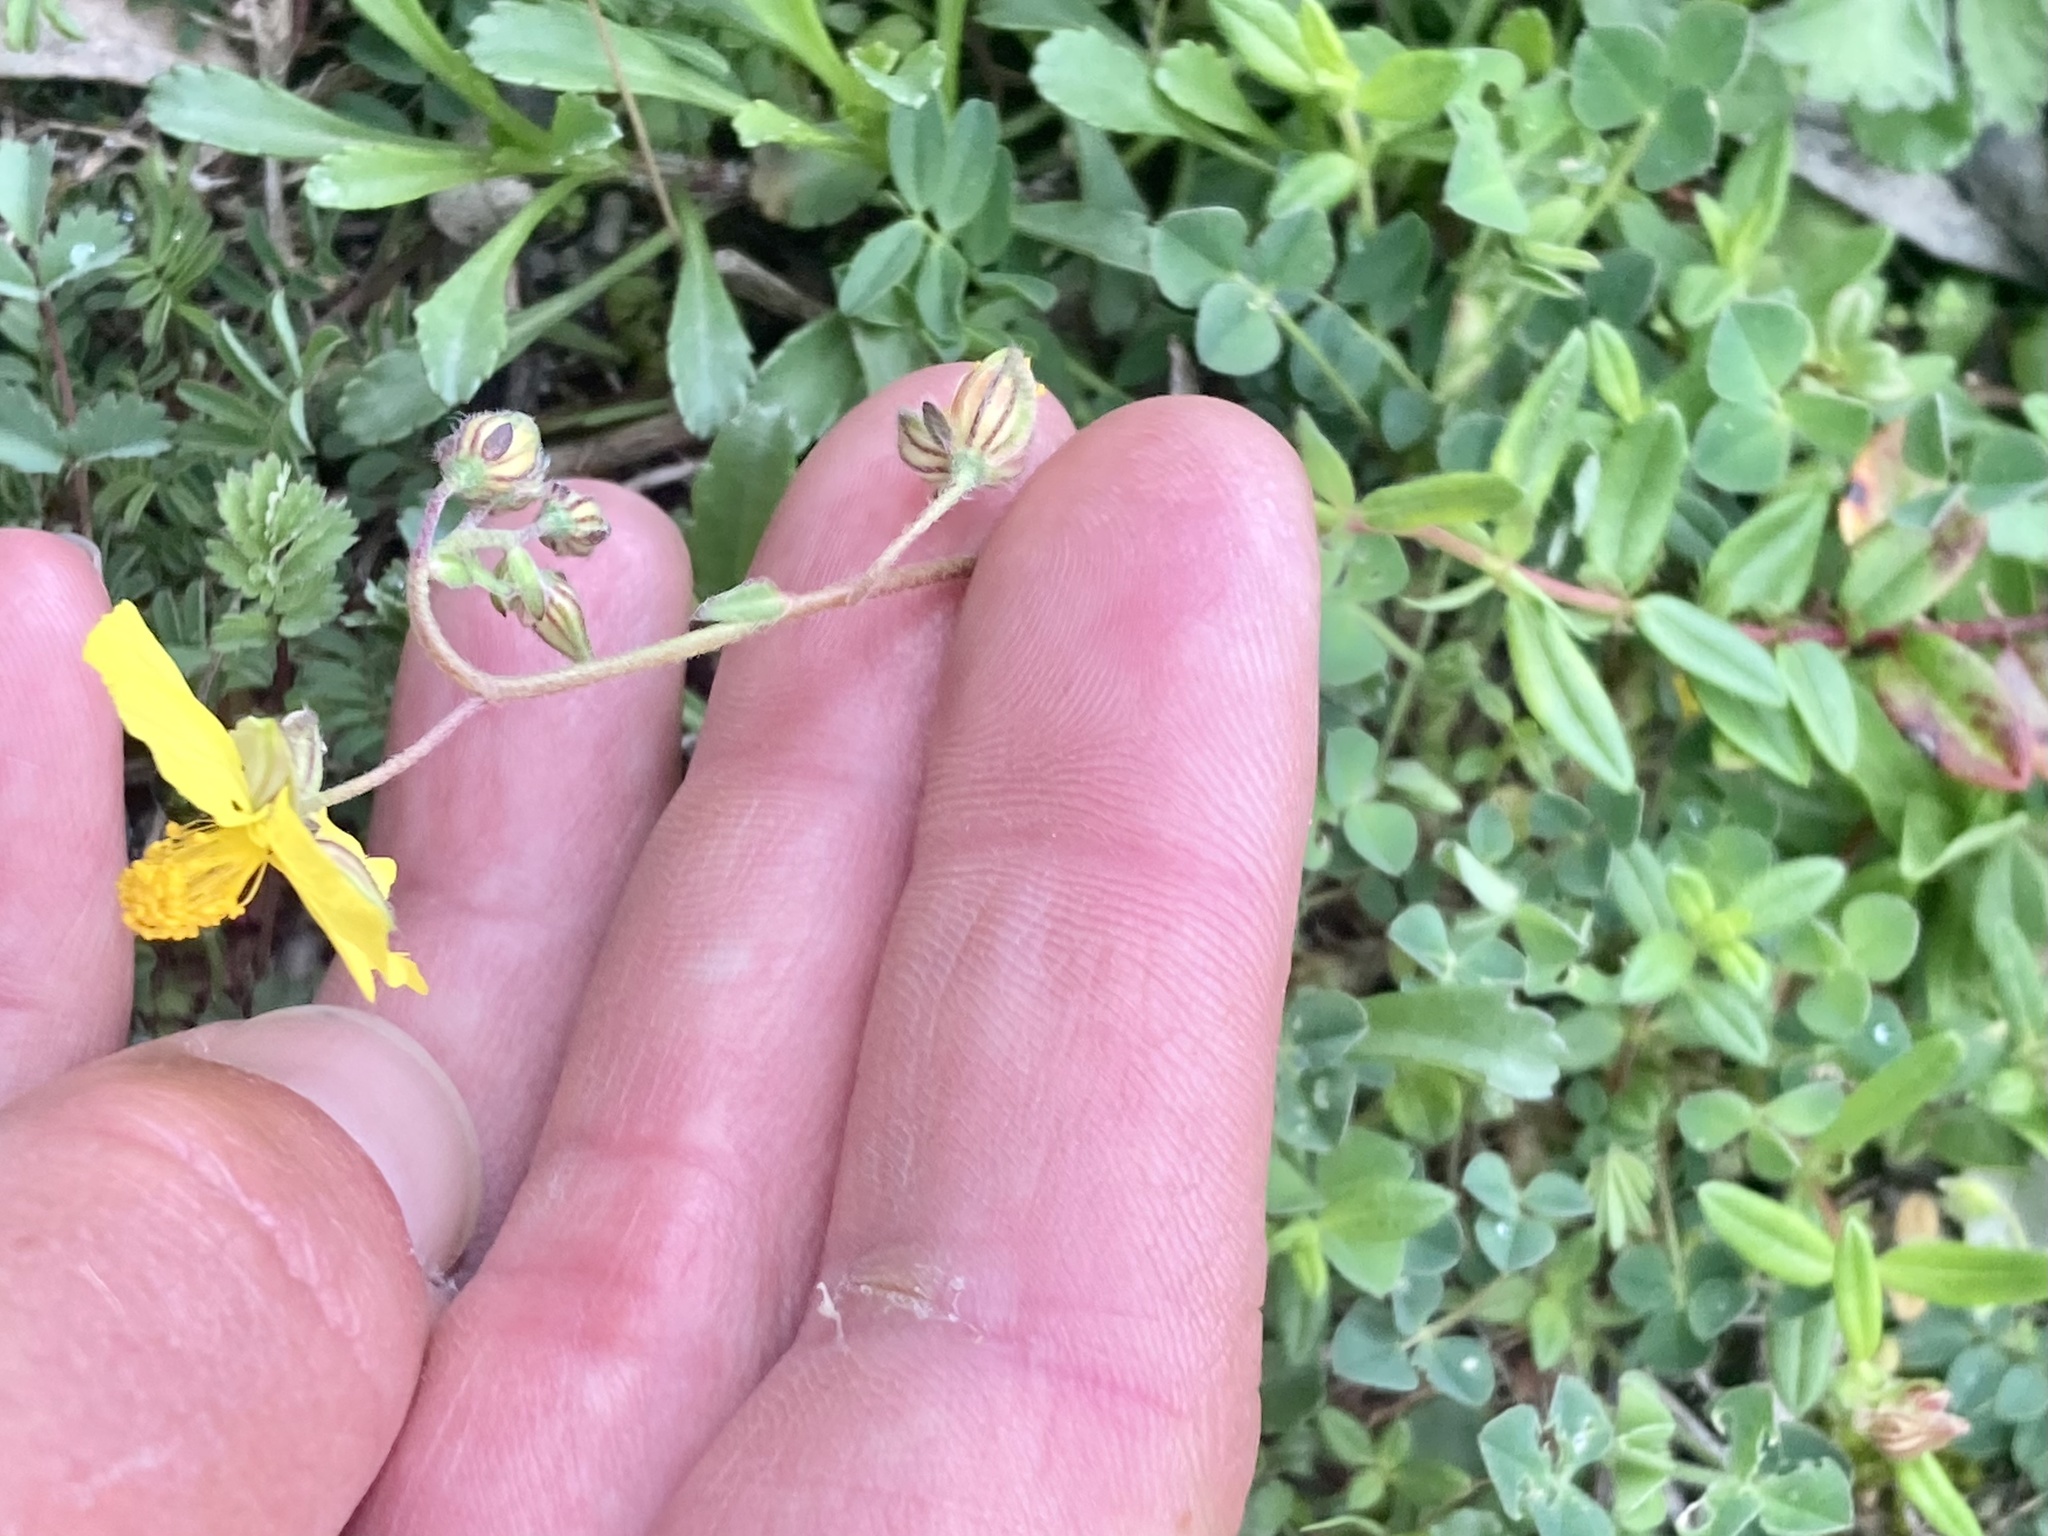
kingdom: Plantae
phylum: Tracheophyta
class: Magnoliopsida
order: Malvales
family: Cistaceae
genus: Helianthemum
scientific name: Helianthemum nummularium
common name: Common rock-rose
